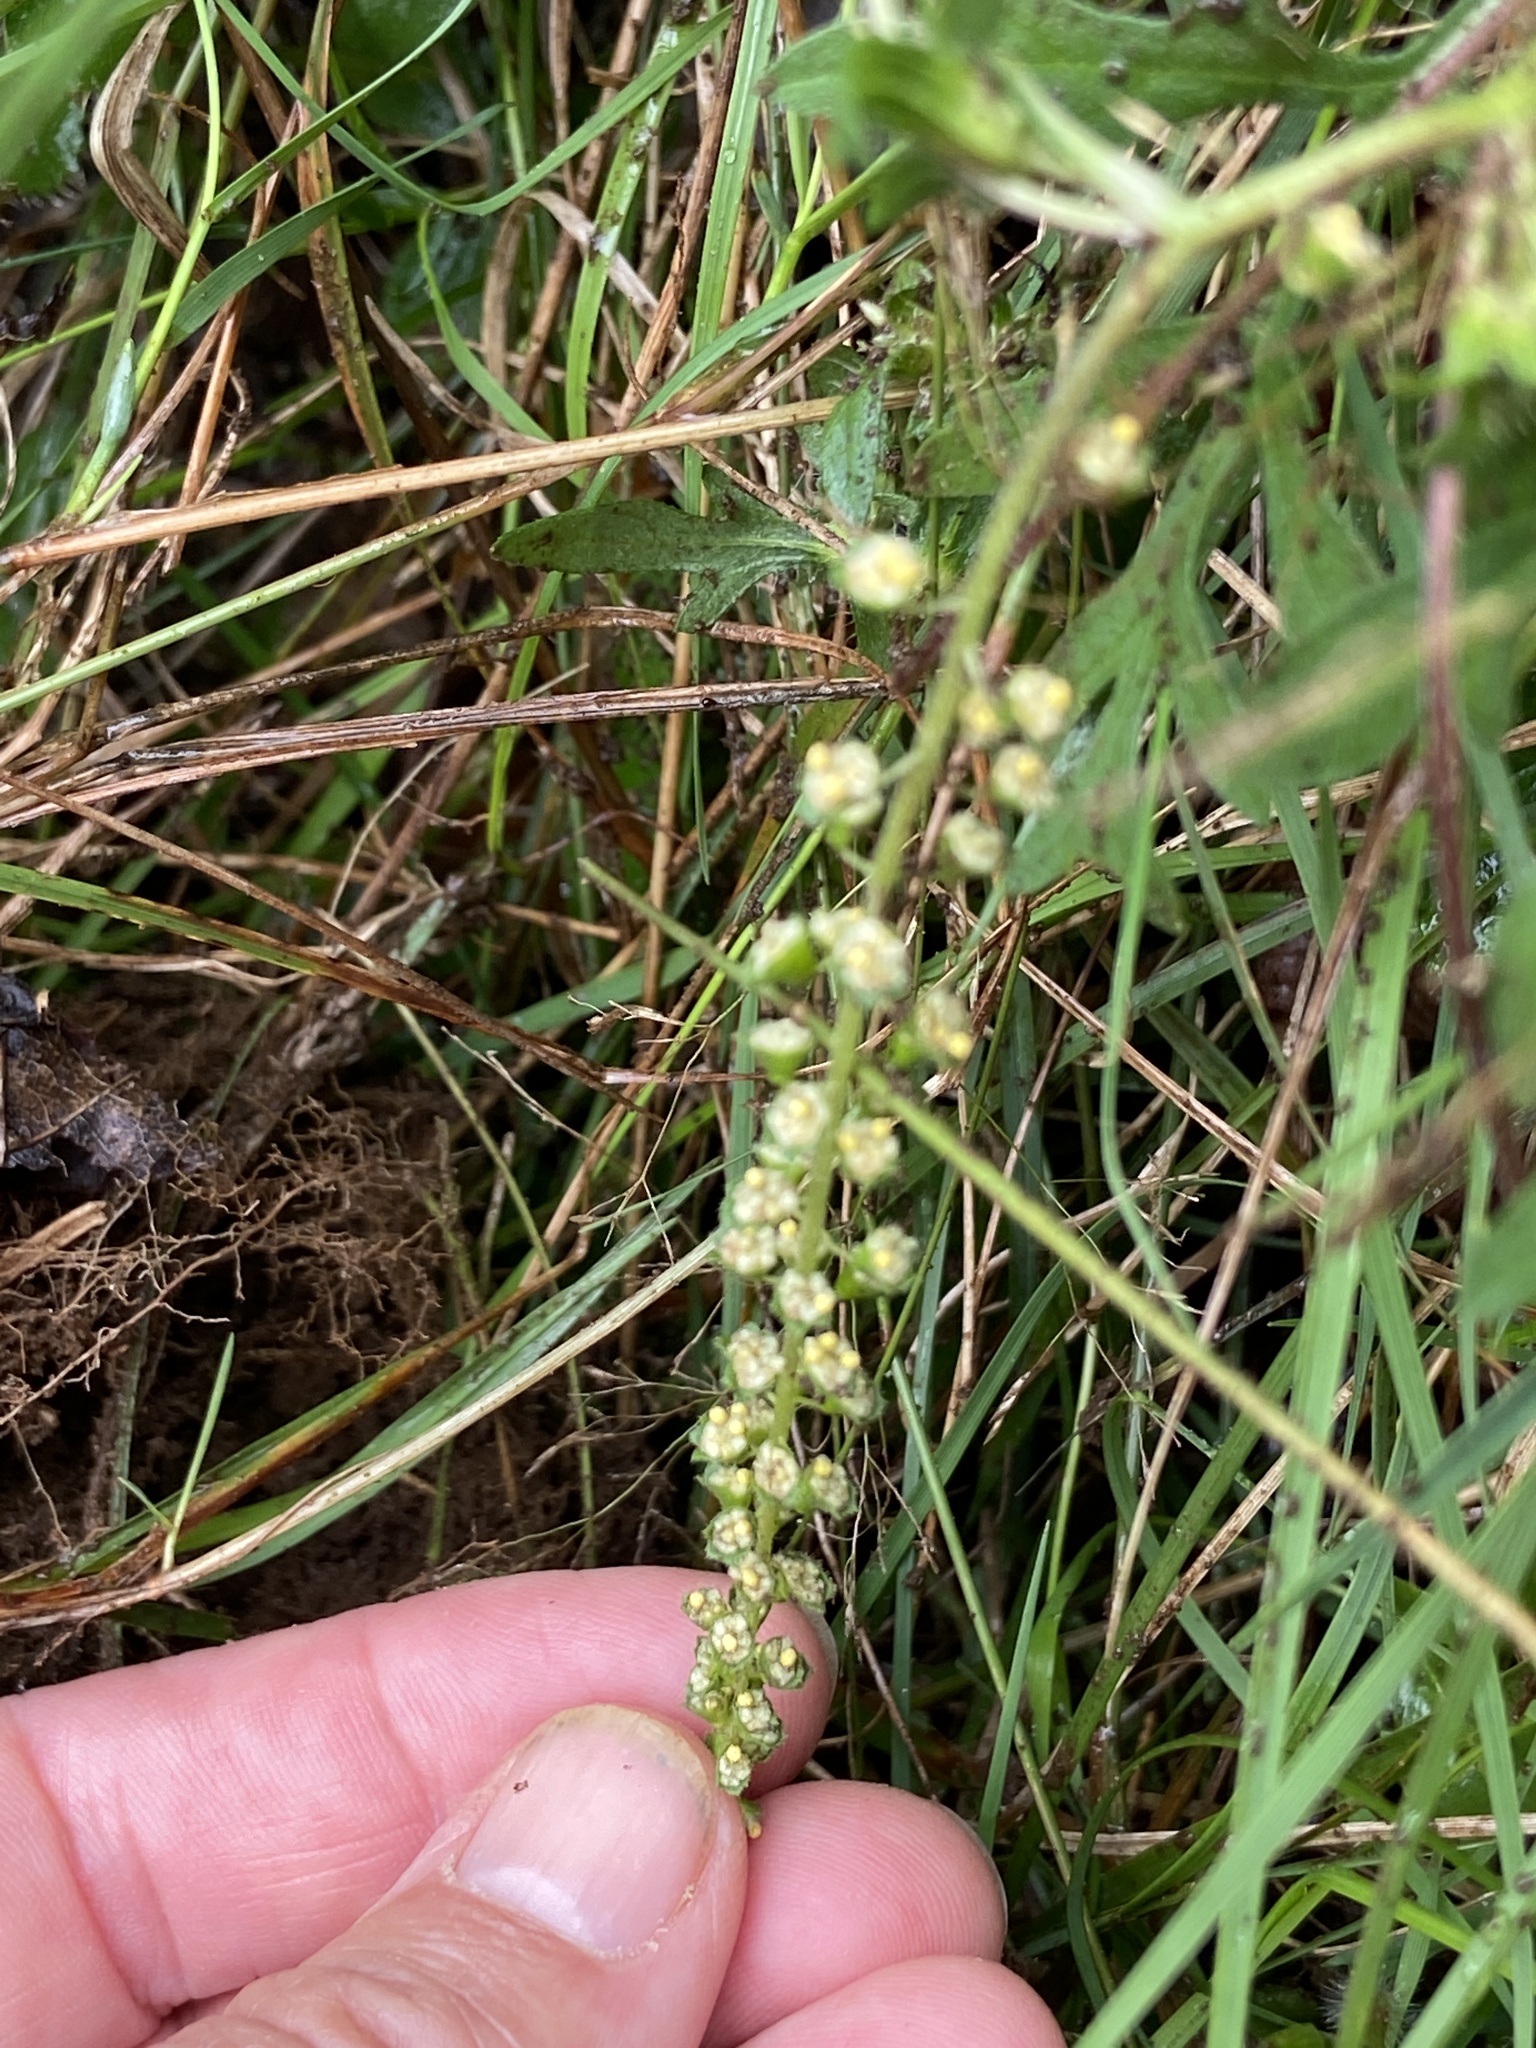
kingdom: Plantae
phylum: Tracheophyta
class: Magnoliopsida
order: Asterales
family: Asteraceae
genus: Ambrosia
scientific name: Ambrosia artemisiifolia
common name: Annual ragweed
